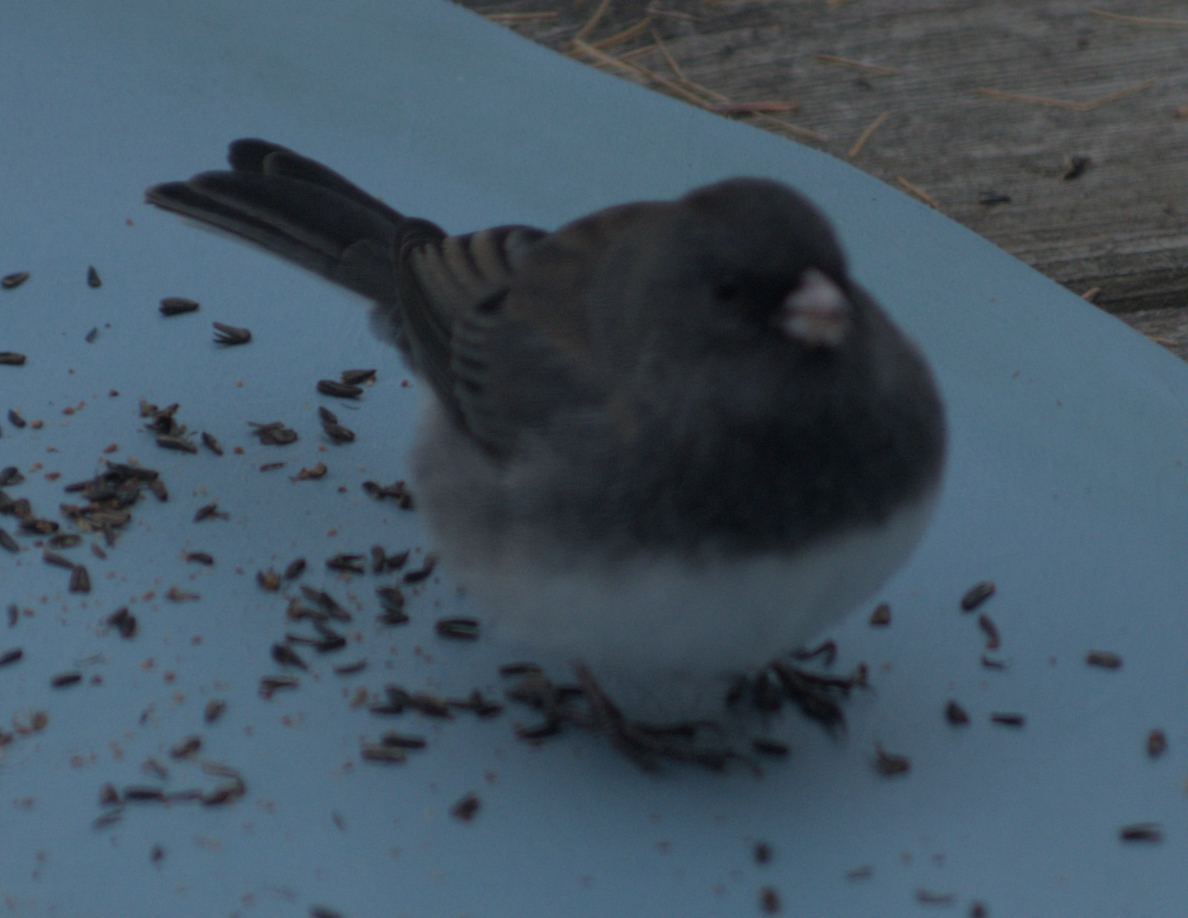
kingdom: Animalia
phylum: Chordata
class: Aves
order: Passeriformes
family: Passerellidae
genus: Junco
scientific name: Junco hyemalis
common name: Dark-eyed junco
